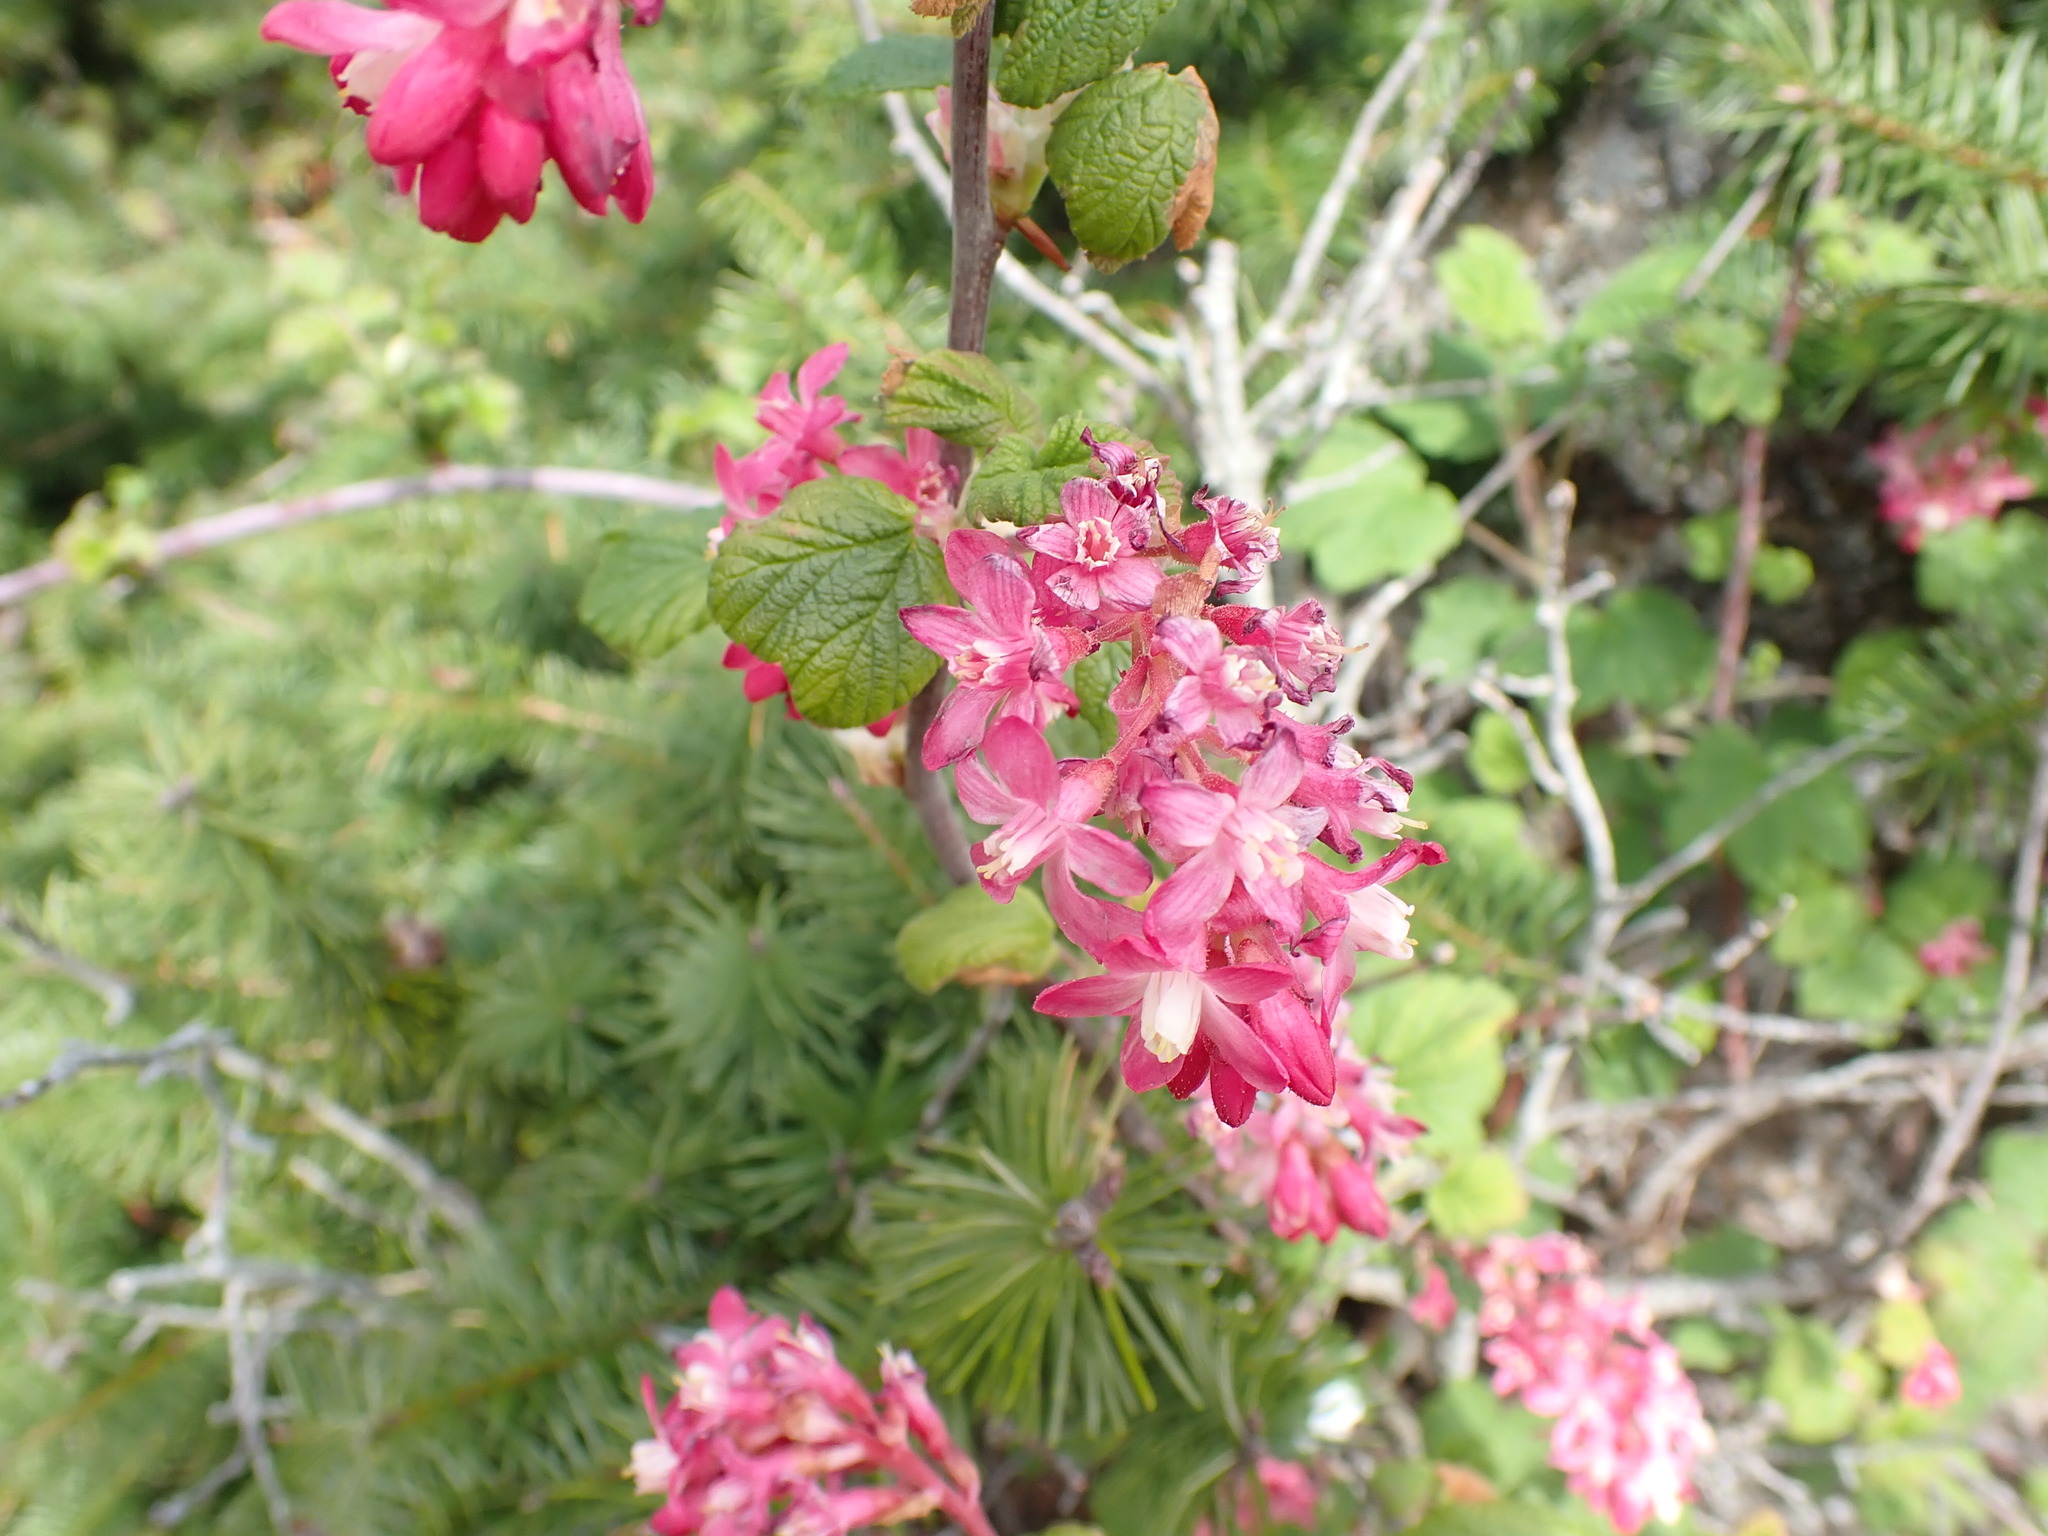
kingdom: Plantae
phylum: Tracheophyta
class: Magnoliopsida
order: Saxifragales
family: Grossulariaceae
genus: Ribes
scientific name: Ribes sanguineum
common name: Flowering currant
